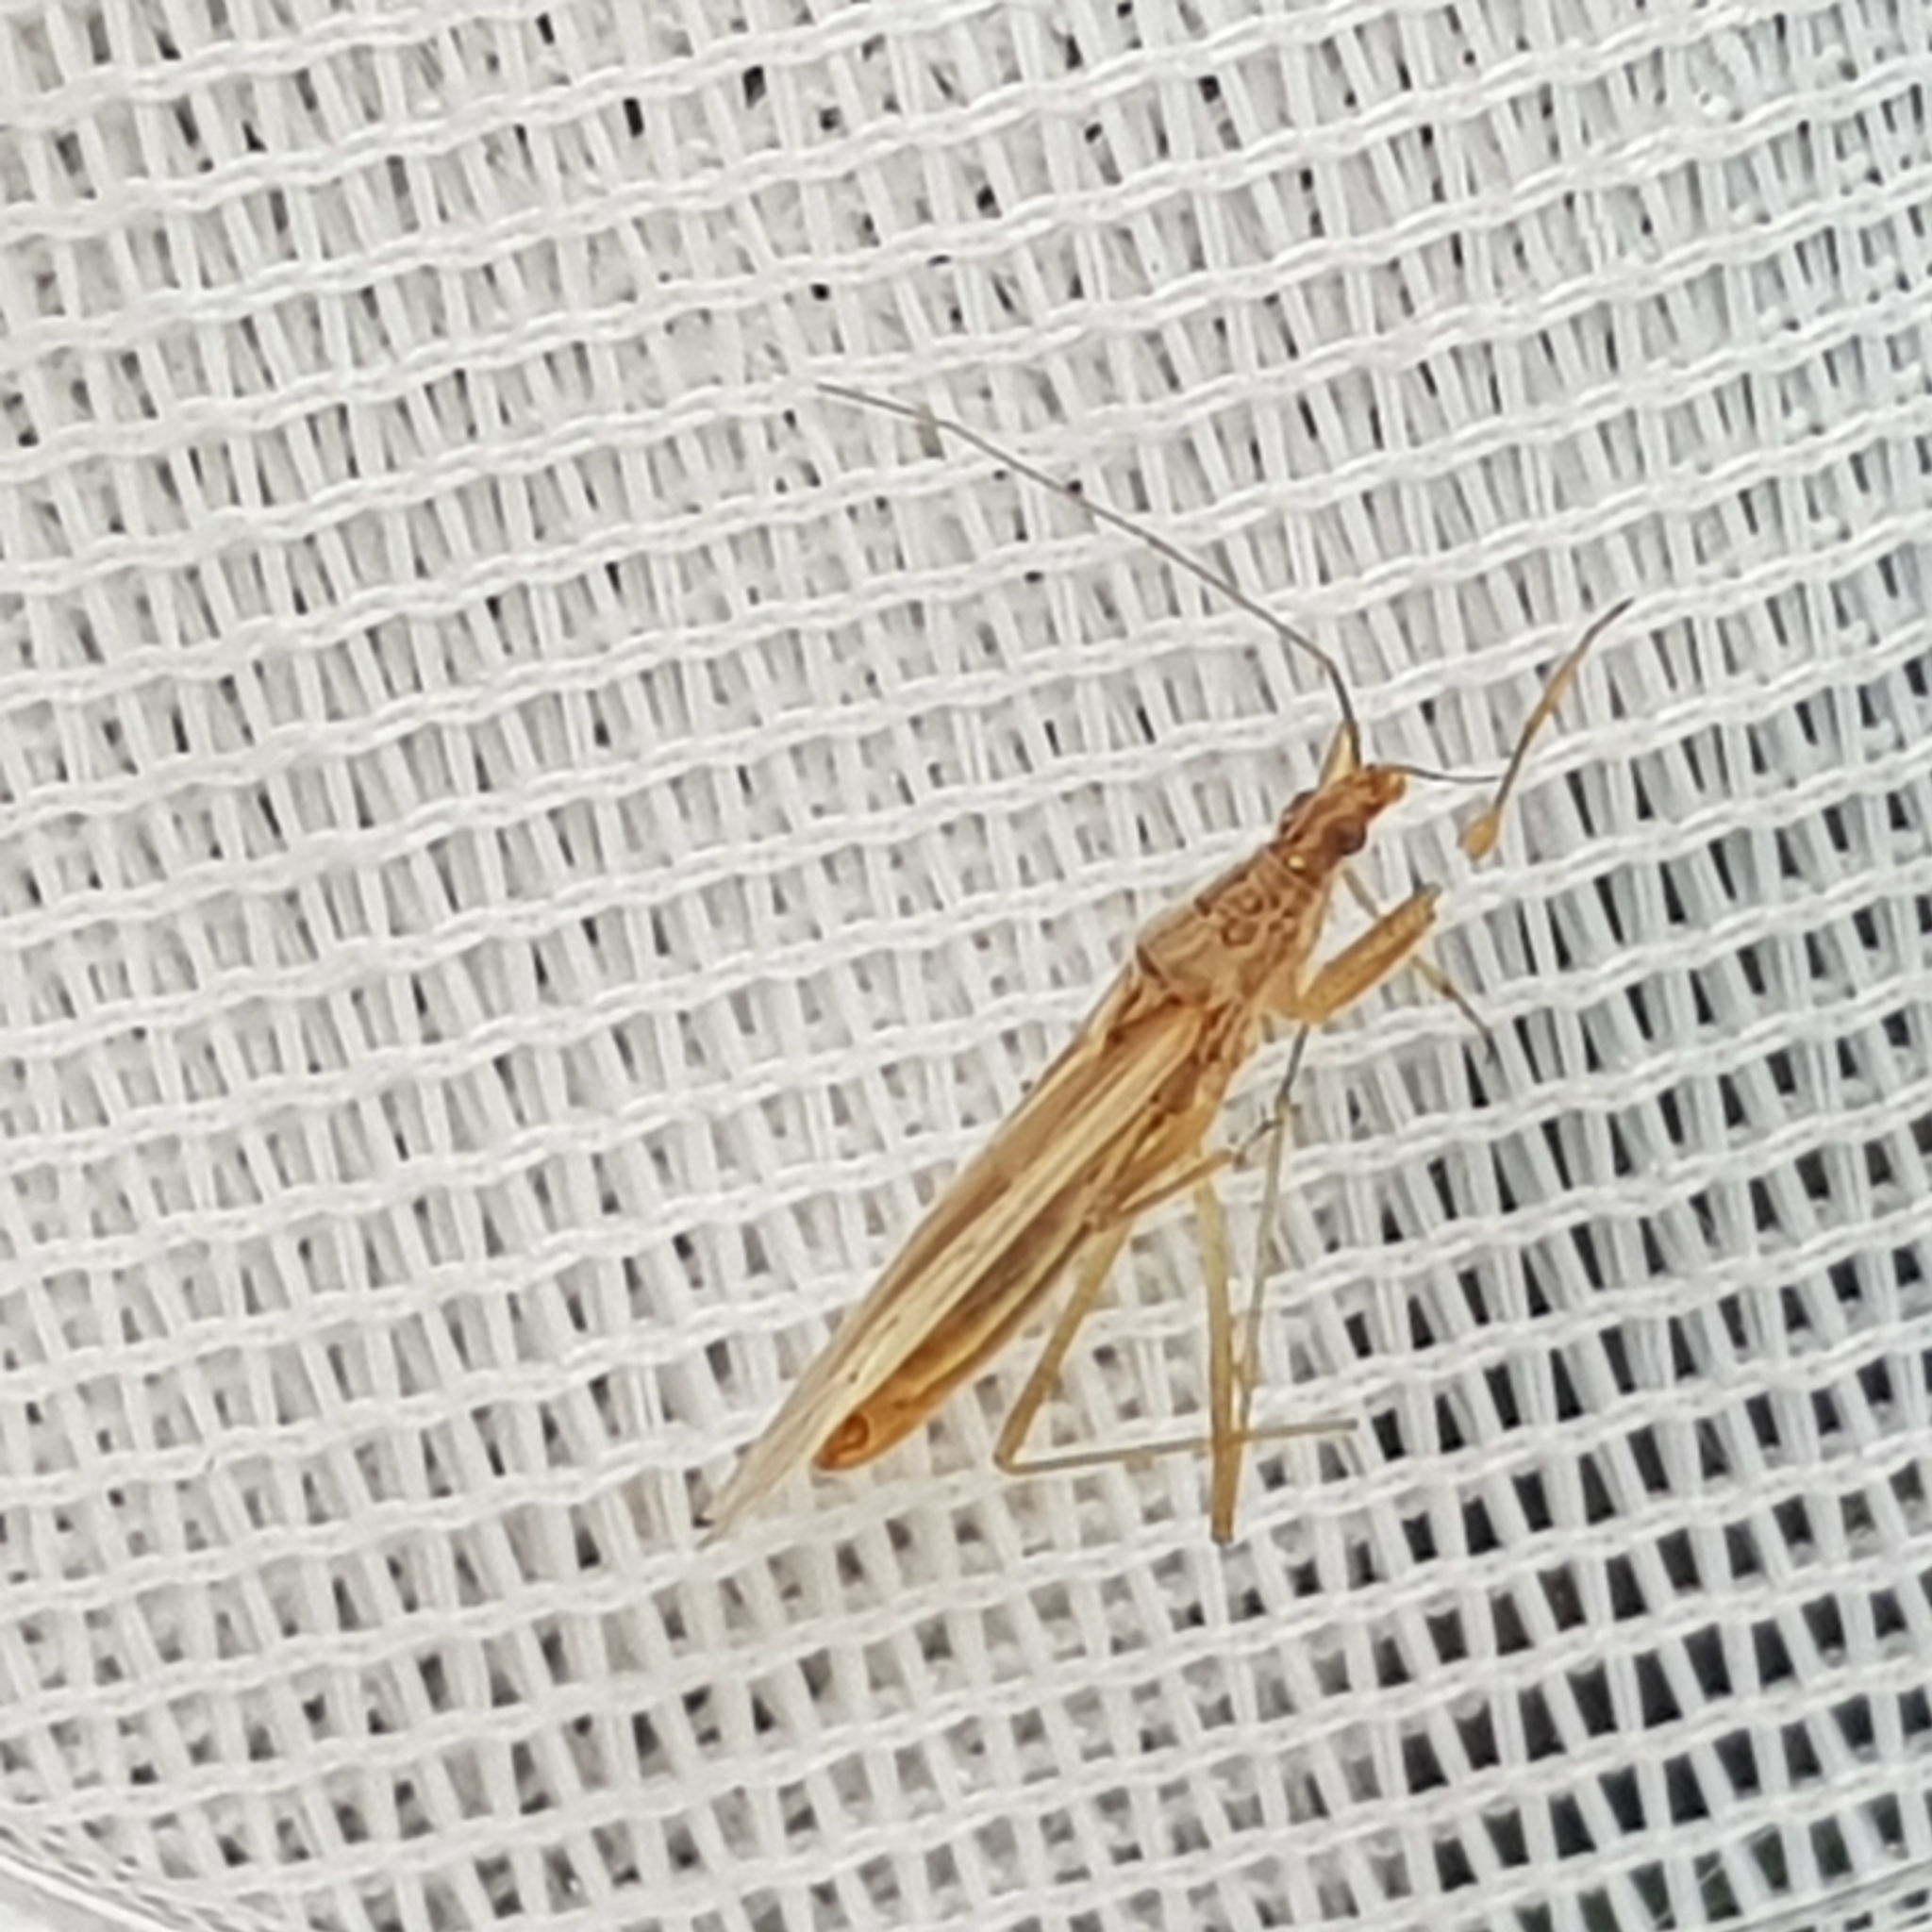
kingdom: Animalia
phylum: Arthropoda
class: Insecta
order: Hemiptera
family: Nabidae
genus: Nabis
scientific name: Nabis kinbergii
